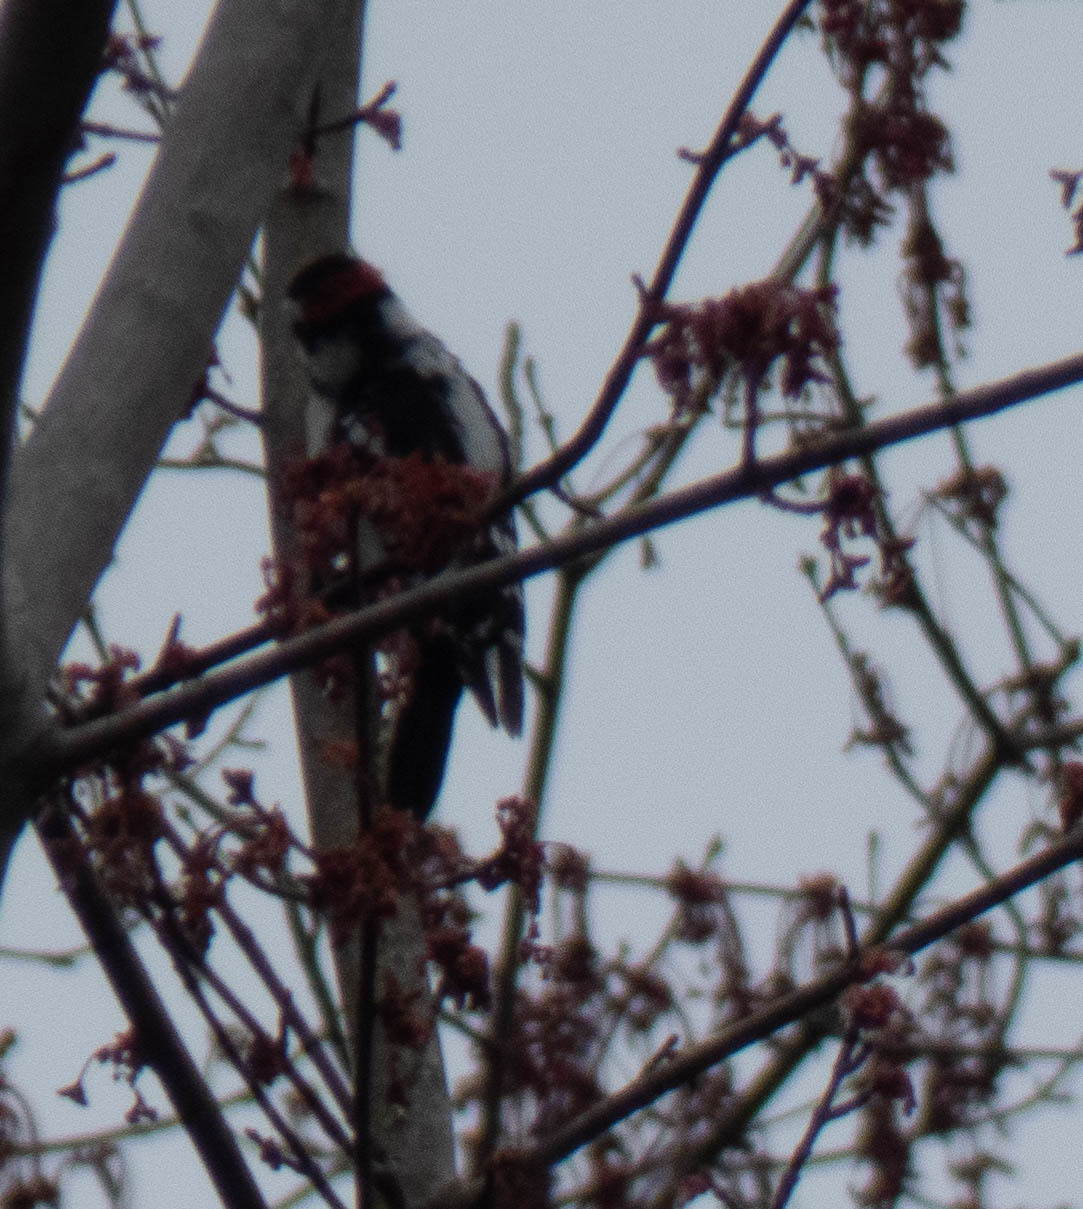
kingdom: Animalia
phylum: Chordata
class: Aves
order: Piciformes
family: Picidae
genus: Dryobates
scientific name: Dryobates pubescens
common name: Downy woodpecker
